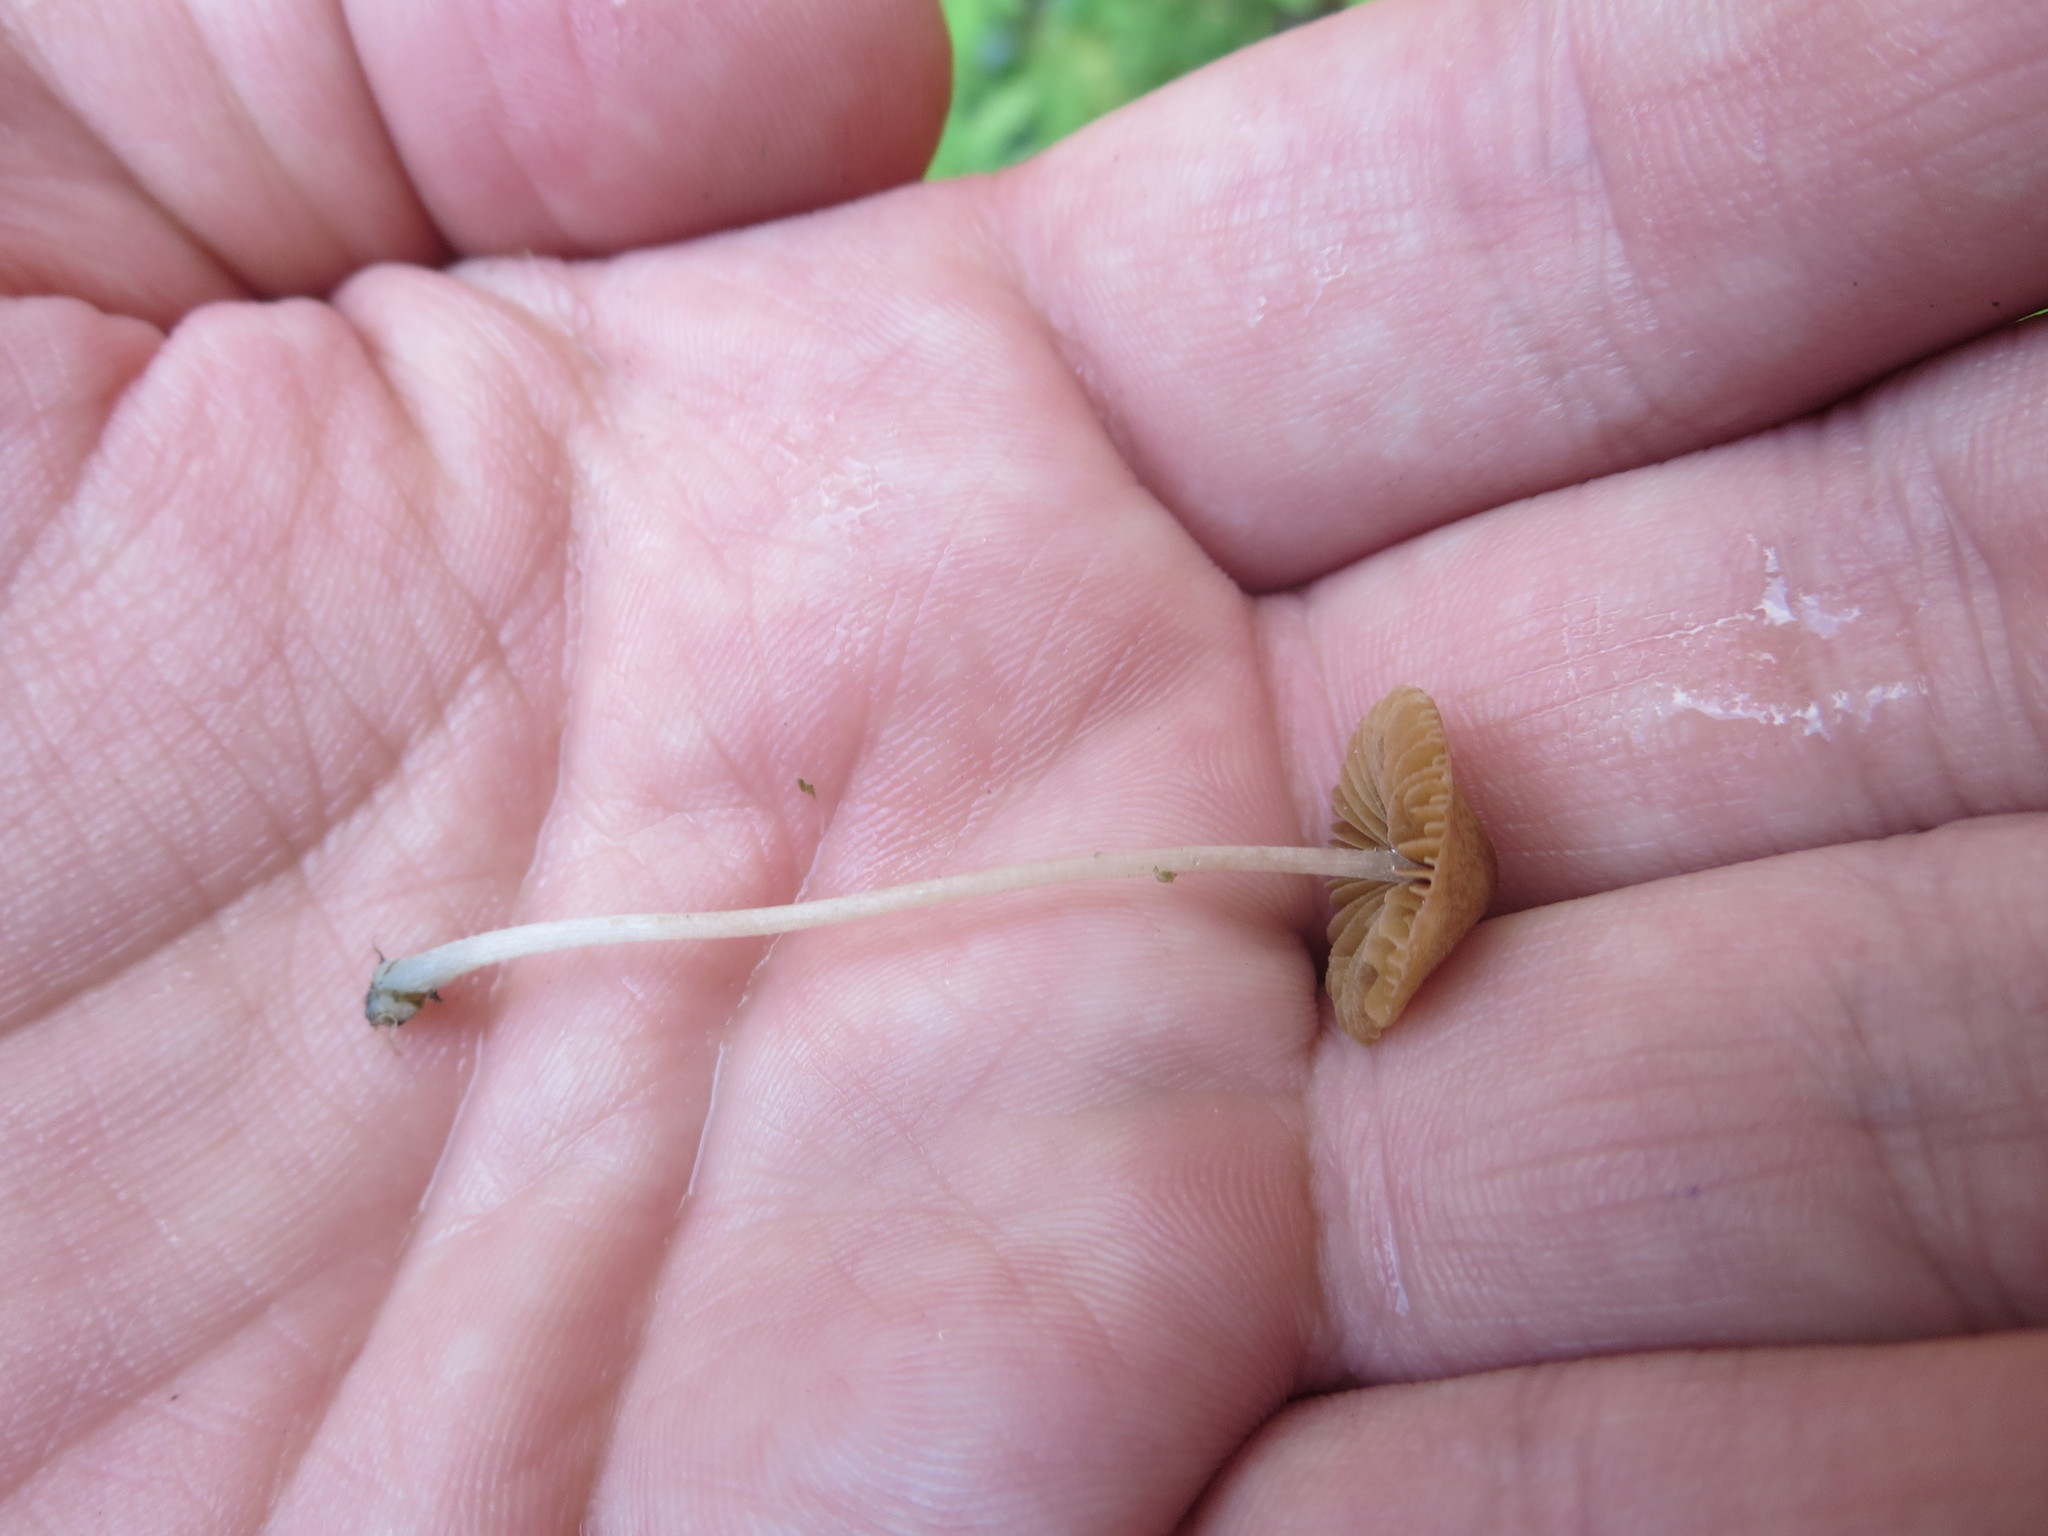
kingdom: Fungi
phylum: Basidiomycota
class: Agaricomycetes
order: Agaricales
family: Bolbitiaceae
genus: Pholiotina
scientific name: Pholiotina cyanopus
